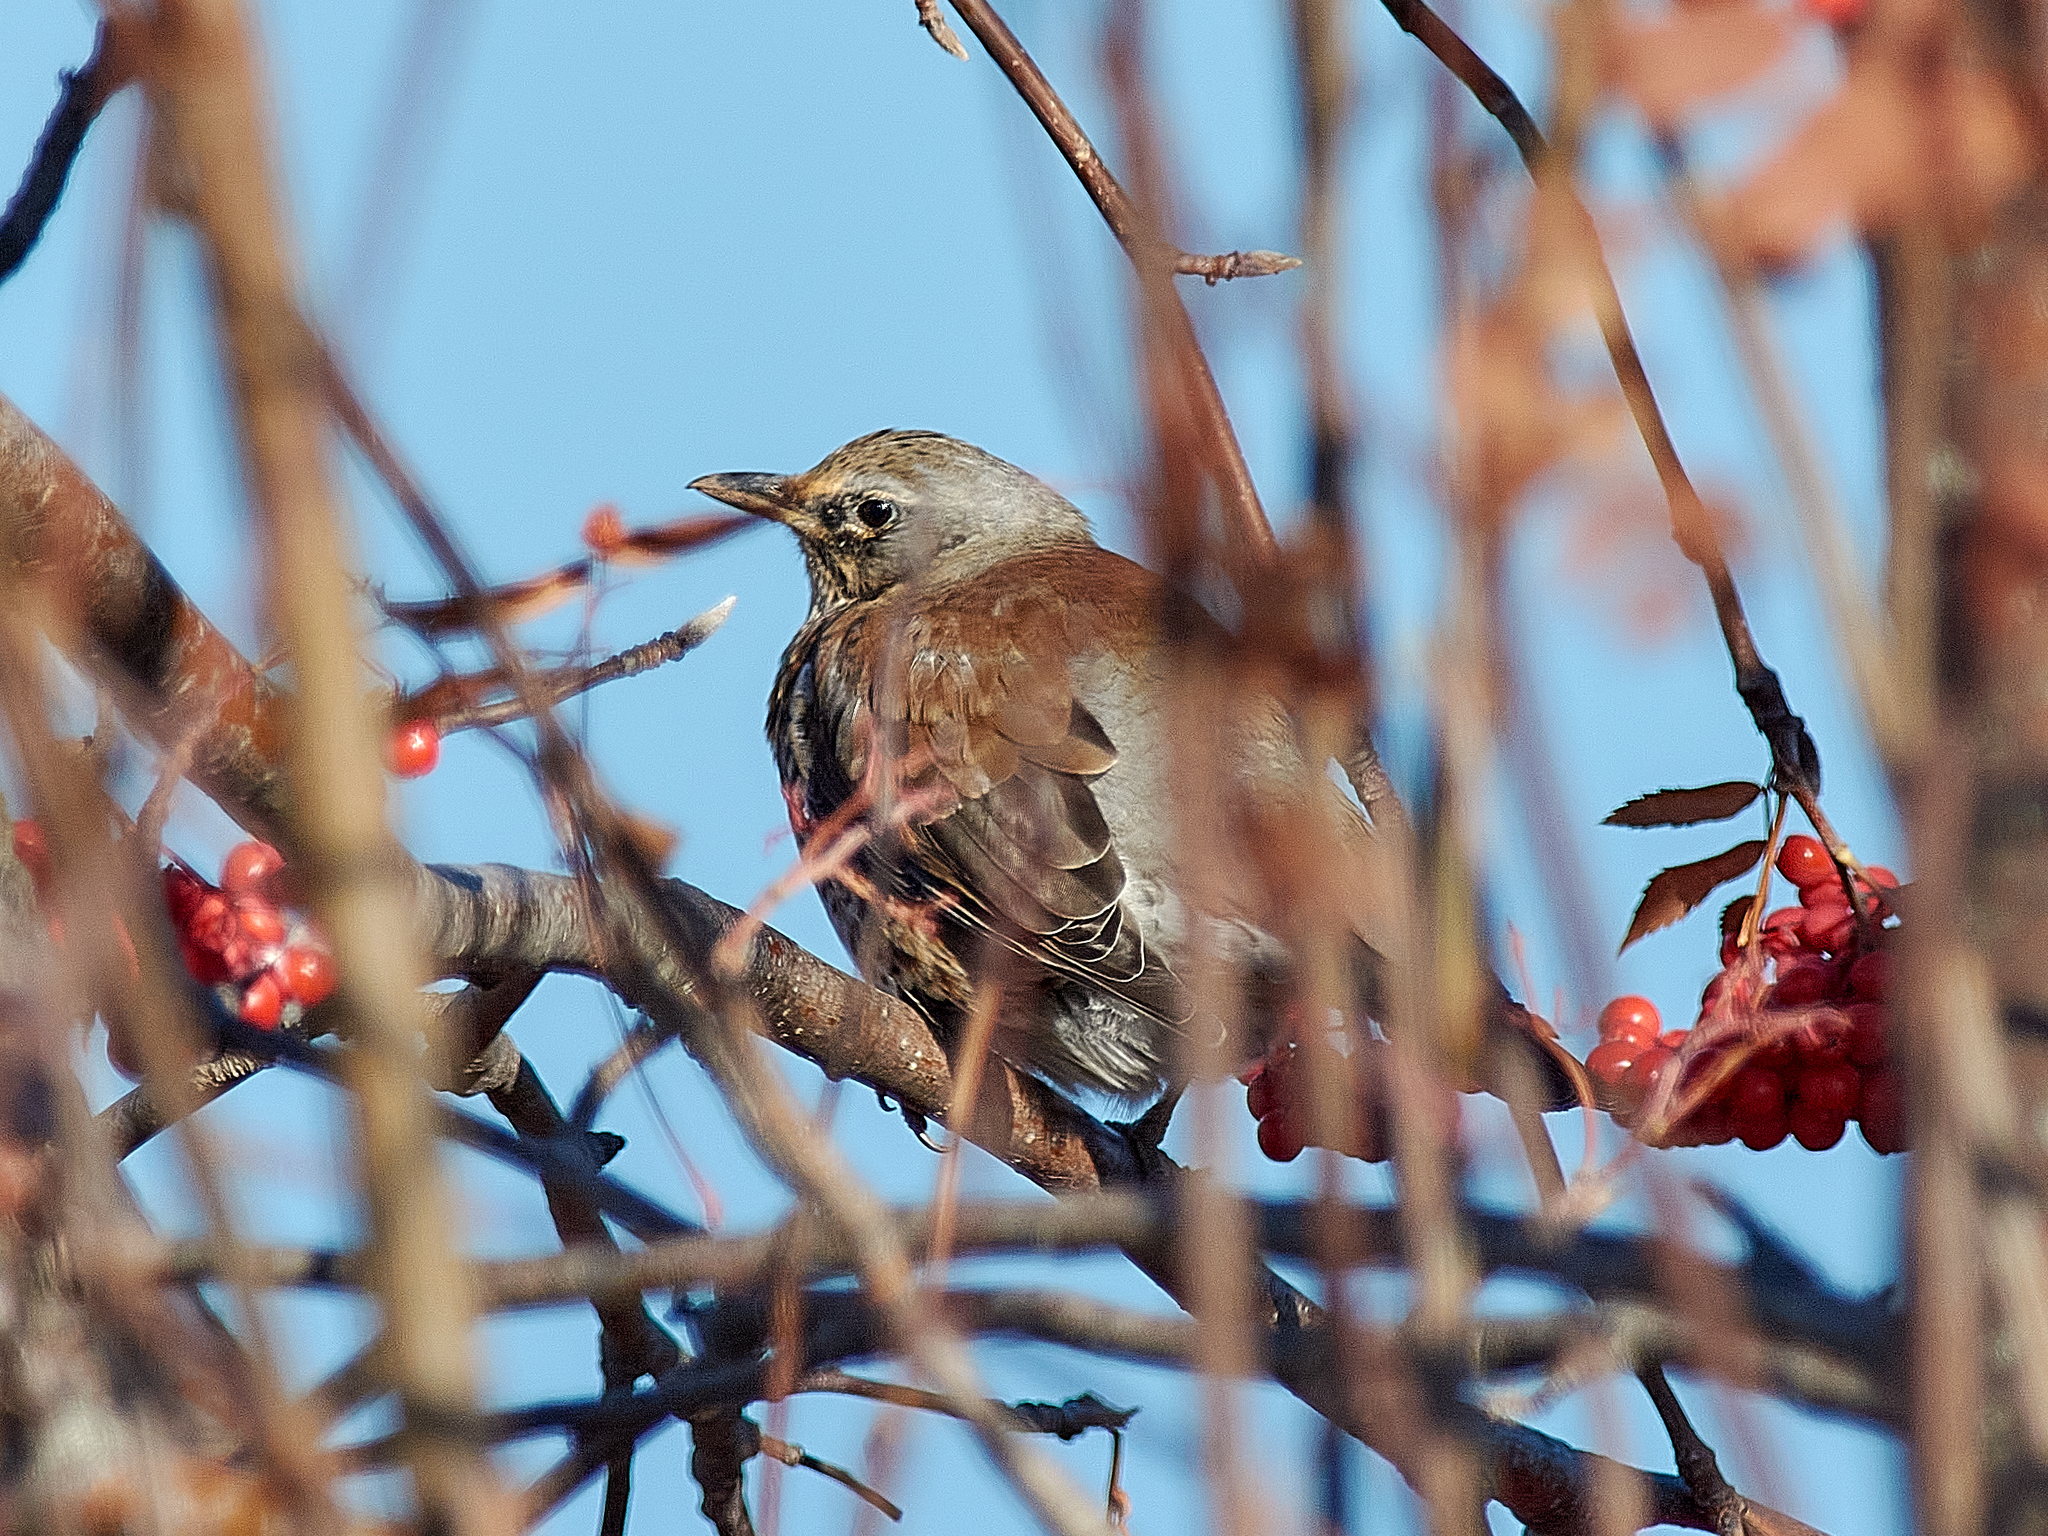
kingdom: Animalia
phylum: Chordata
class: Aves
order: Passeriformes
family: Turdidae
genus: Turdus
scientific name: Turdus pilaris
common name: Fieldfare
